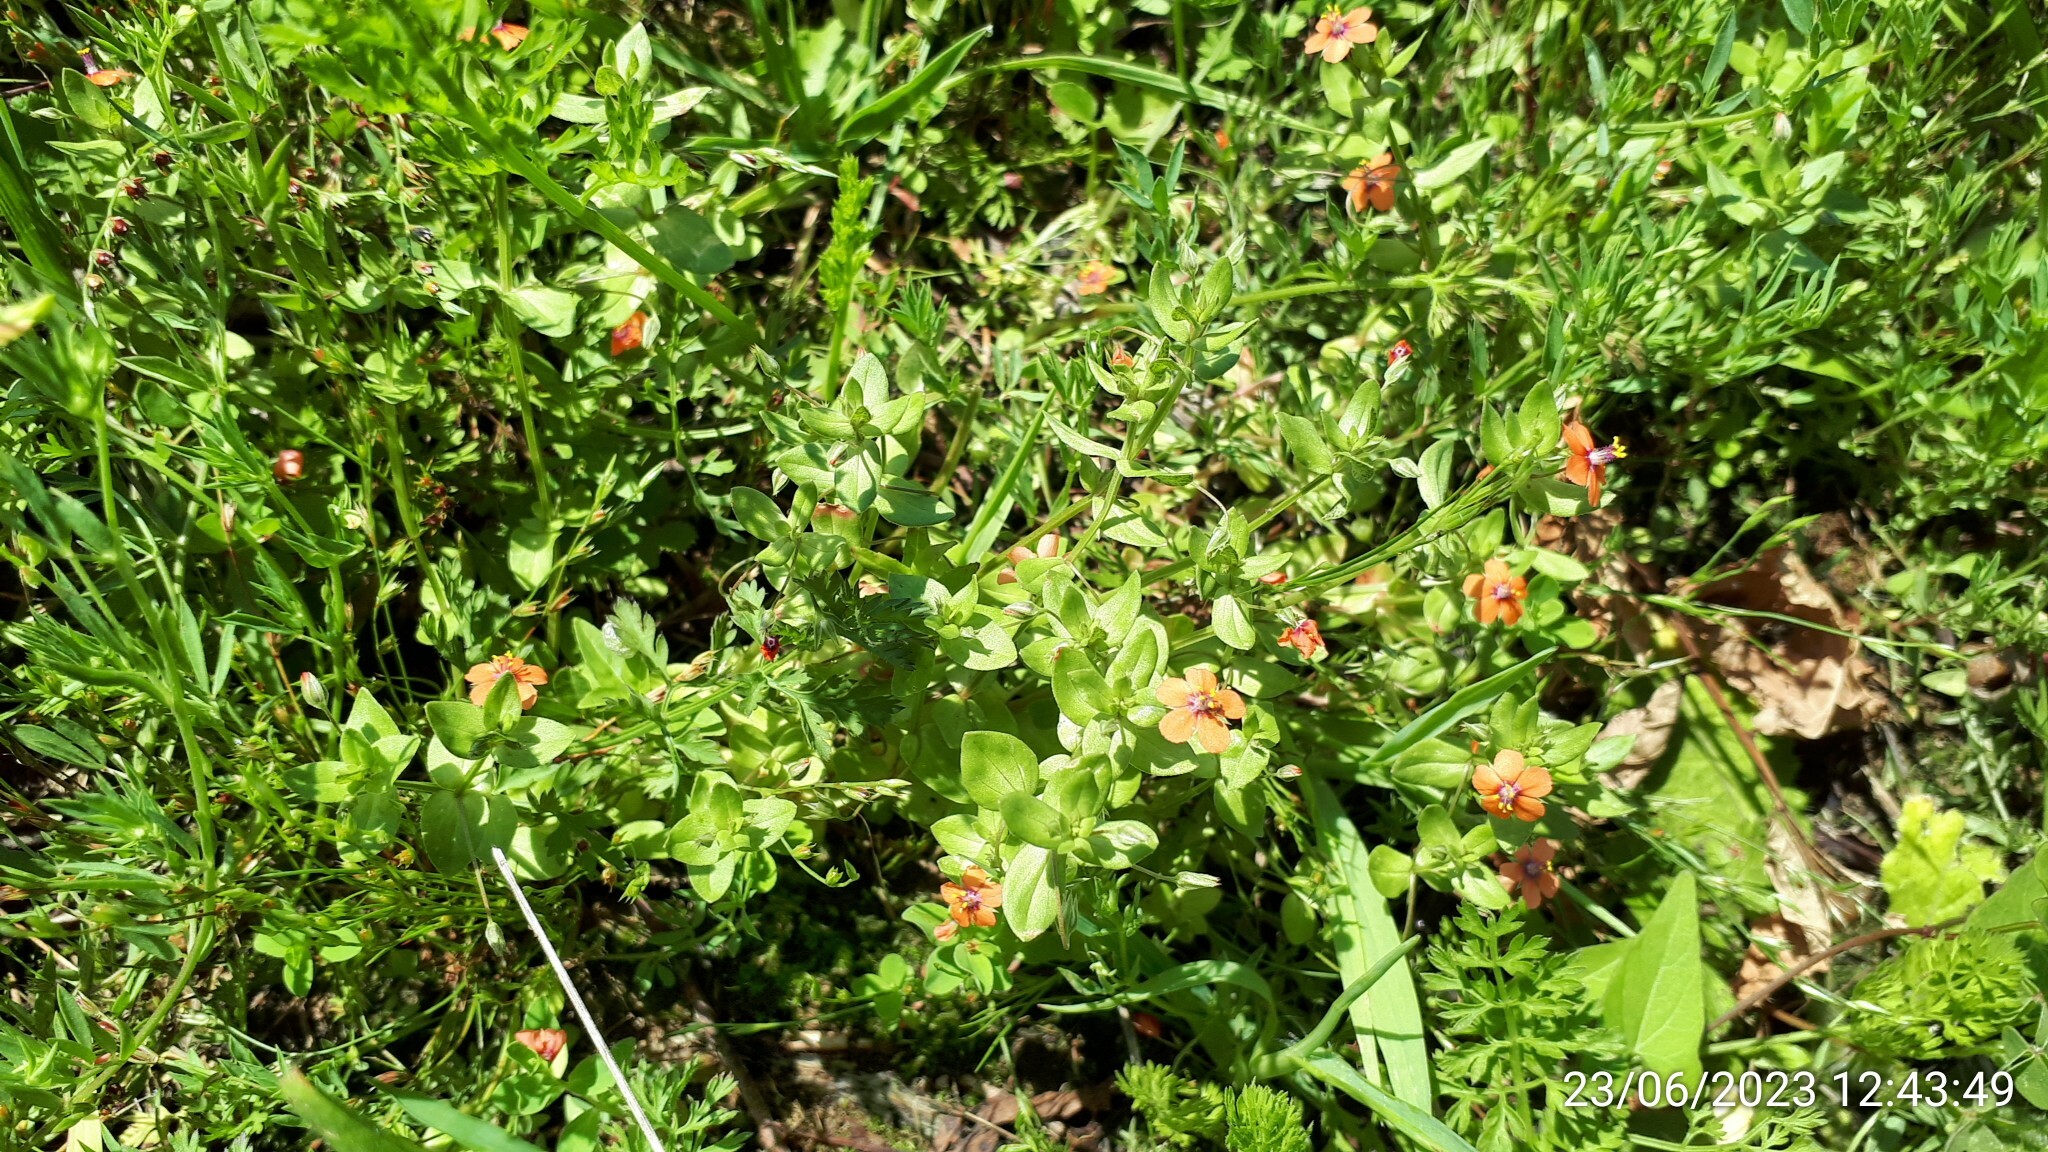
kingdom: Plantae
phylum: Tracheophyta
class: Magnoliopsida
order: Ericales
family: Primulaceae
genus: Lysimachia
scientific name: Lysimachia arvensis
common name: Scarlet pimpernel
